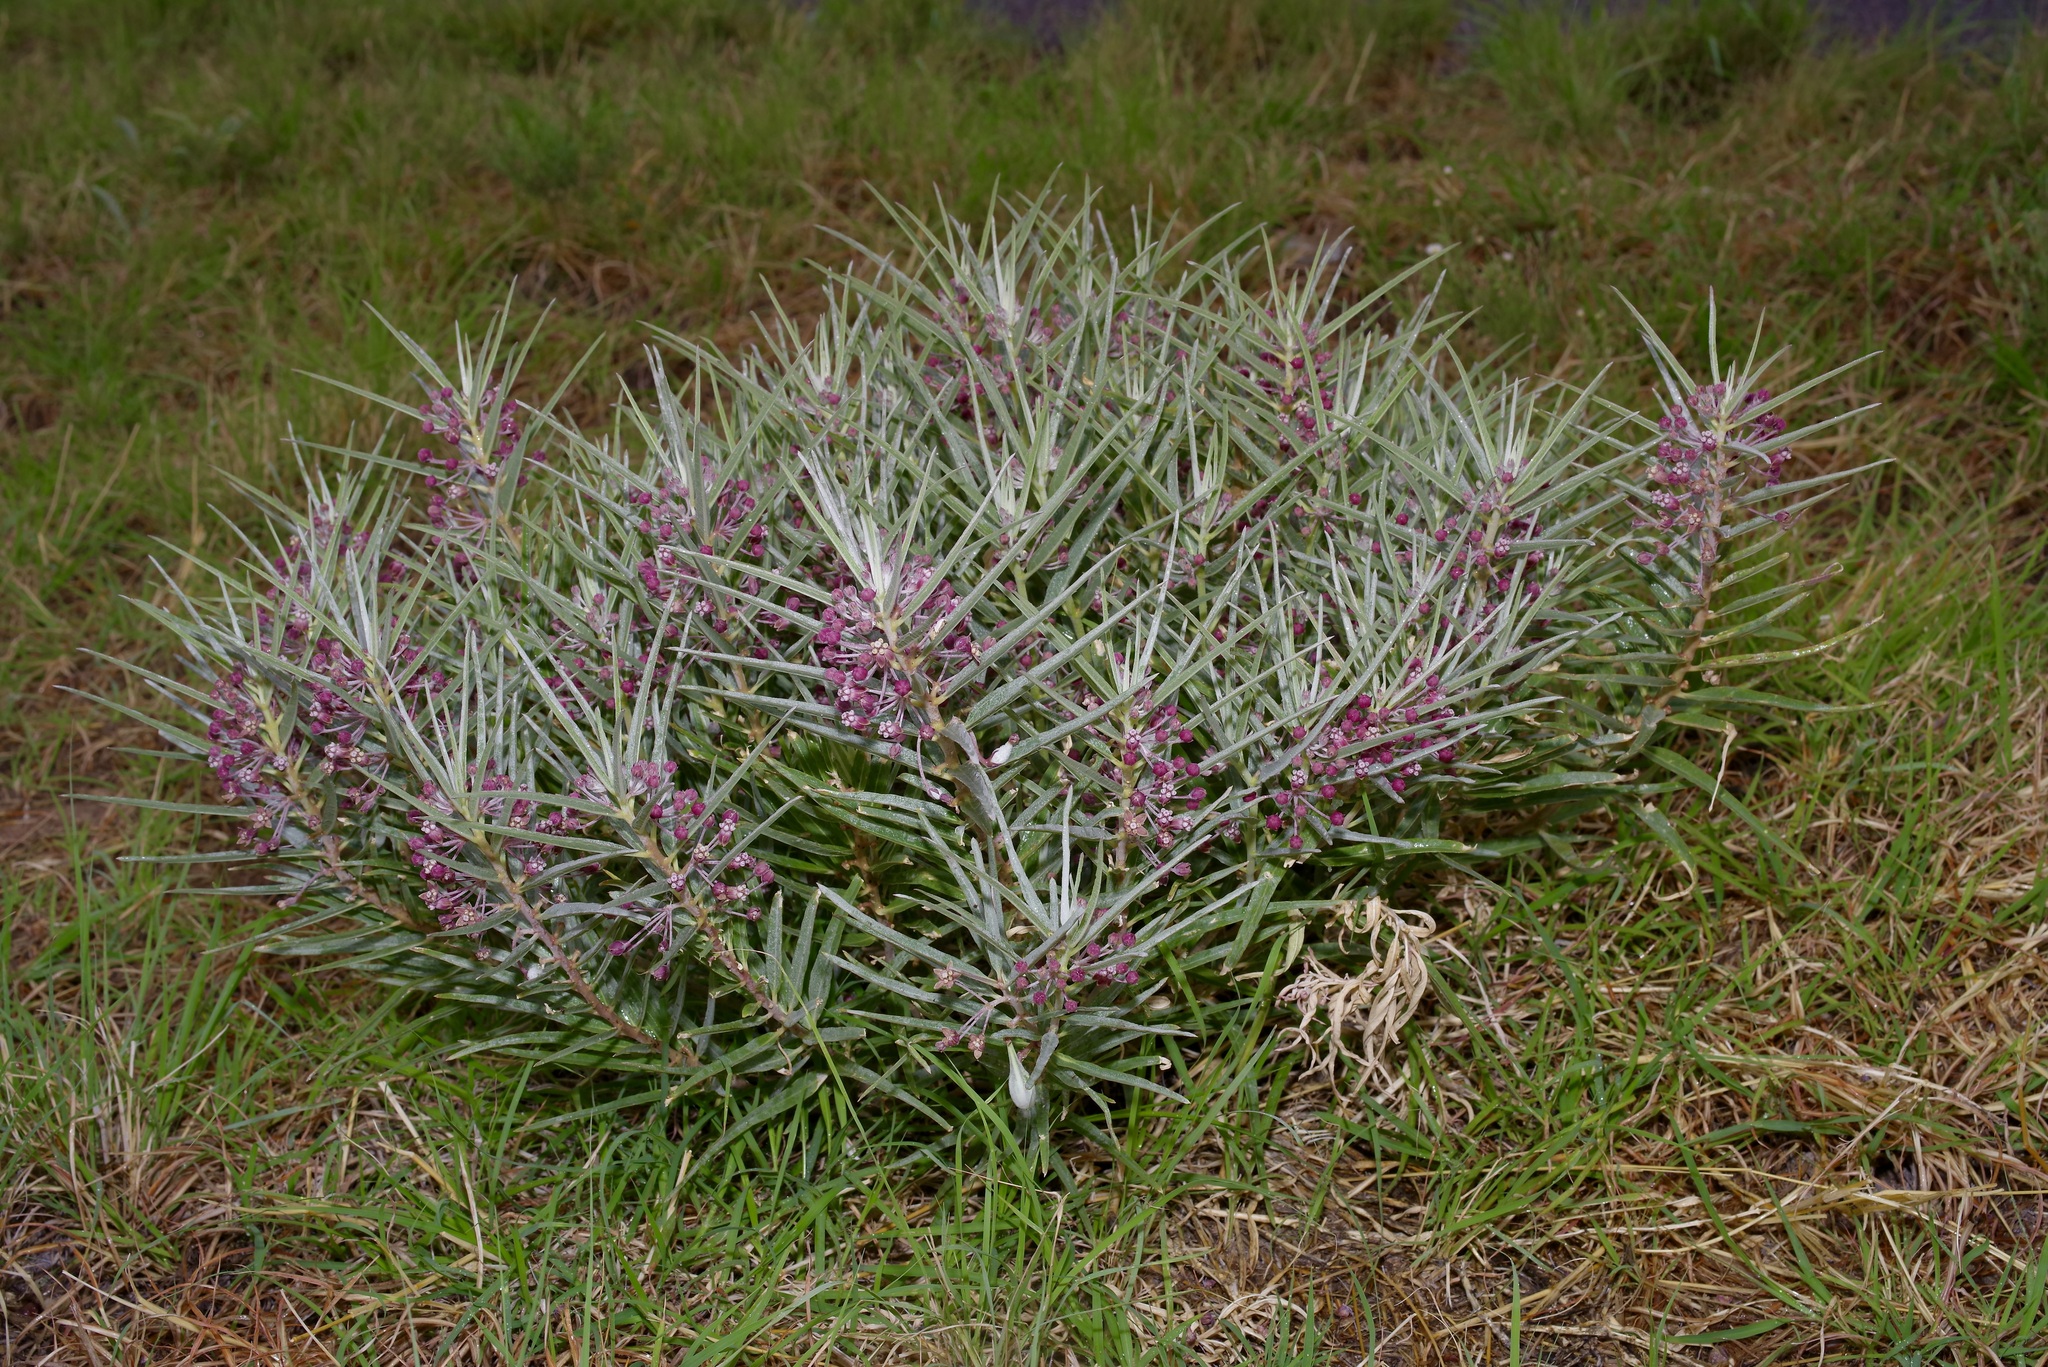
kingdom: Plantae
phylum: Tracheophyta
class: Magnoliopsida
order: Gentianales
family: Apocynaceae
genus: Asclepias
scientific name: Asclepias brachystephana
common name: Shortcrown milkweed
